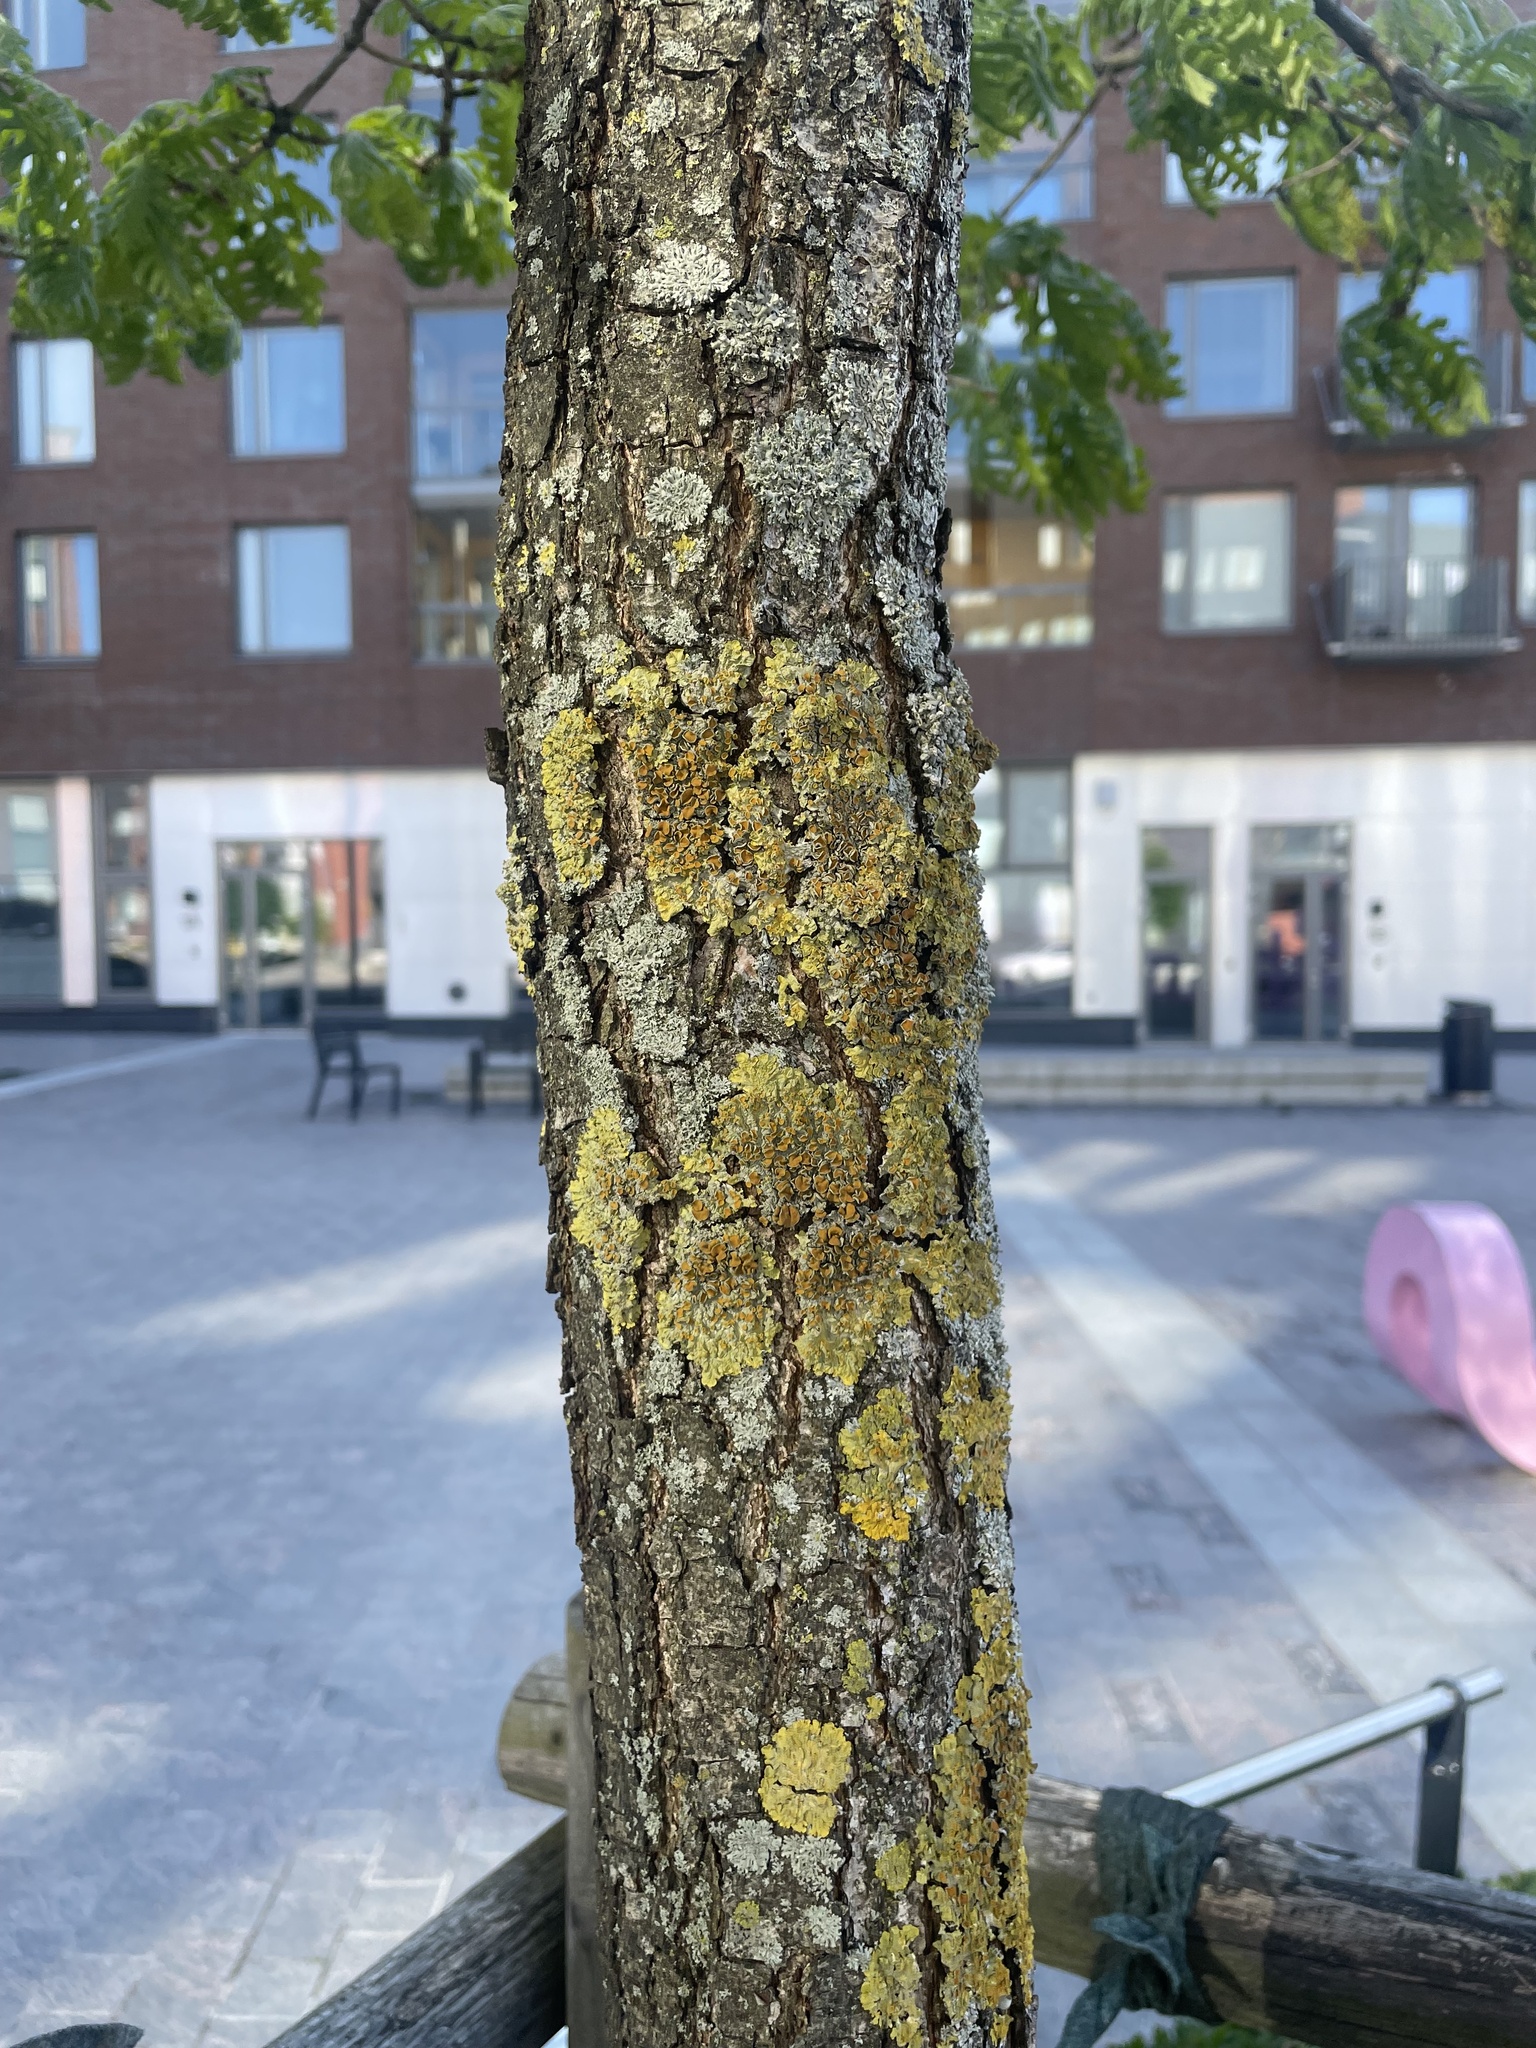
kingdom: Fungi
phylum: Ascomycota
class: Lecanoromycetes
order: Teloschistales
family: Teloschistaceae
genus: Xanthoria
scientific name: Xanthoria parietina
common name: Common orange lichen
